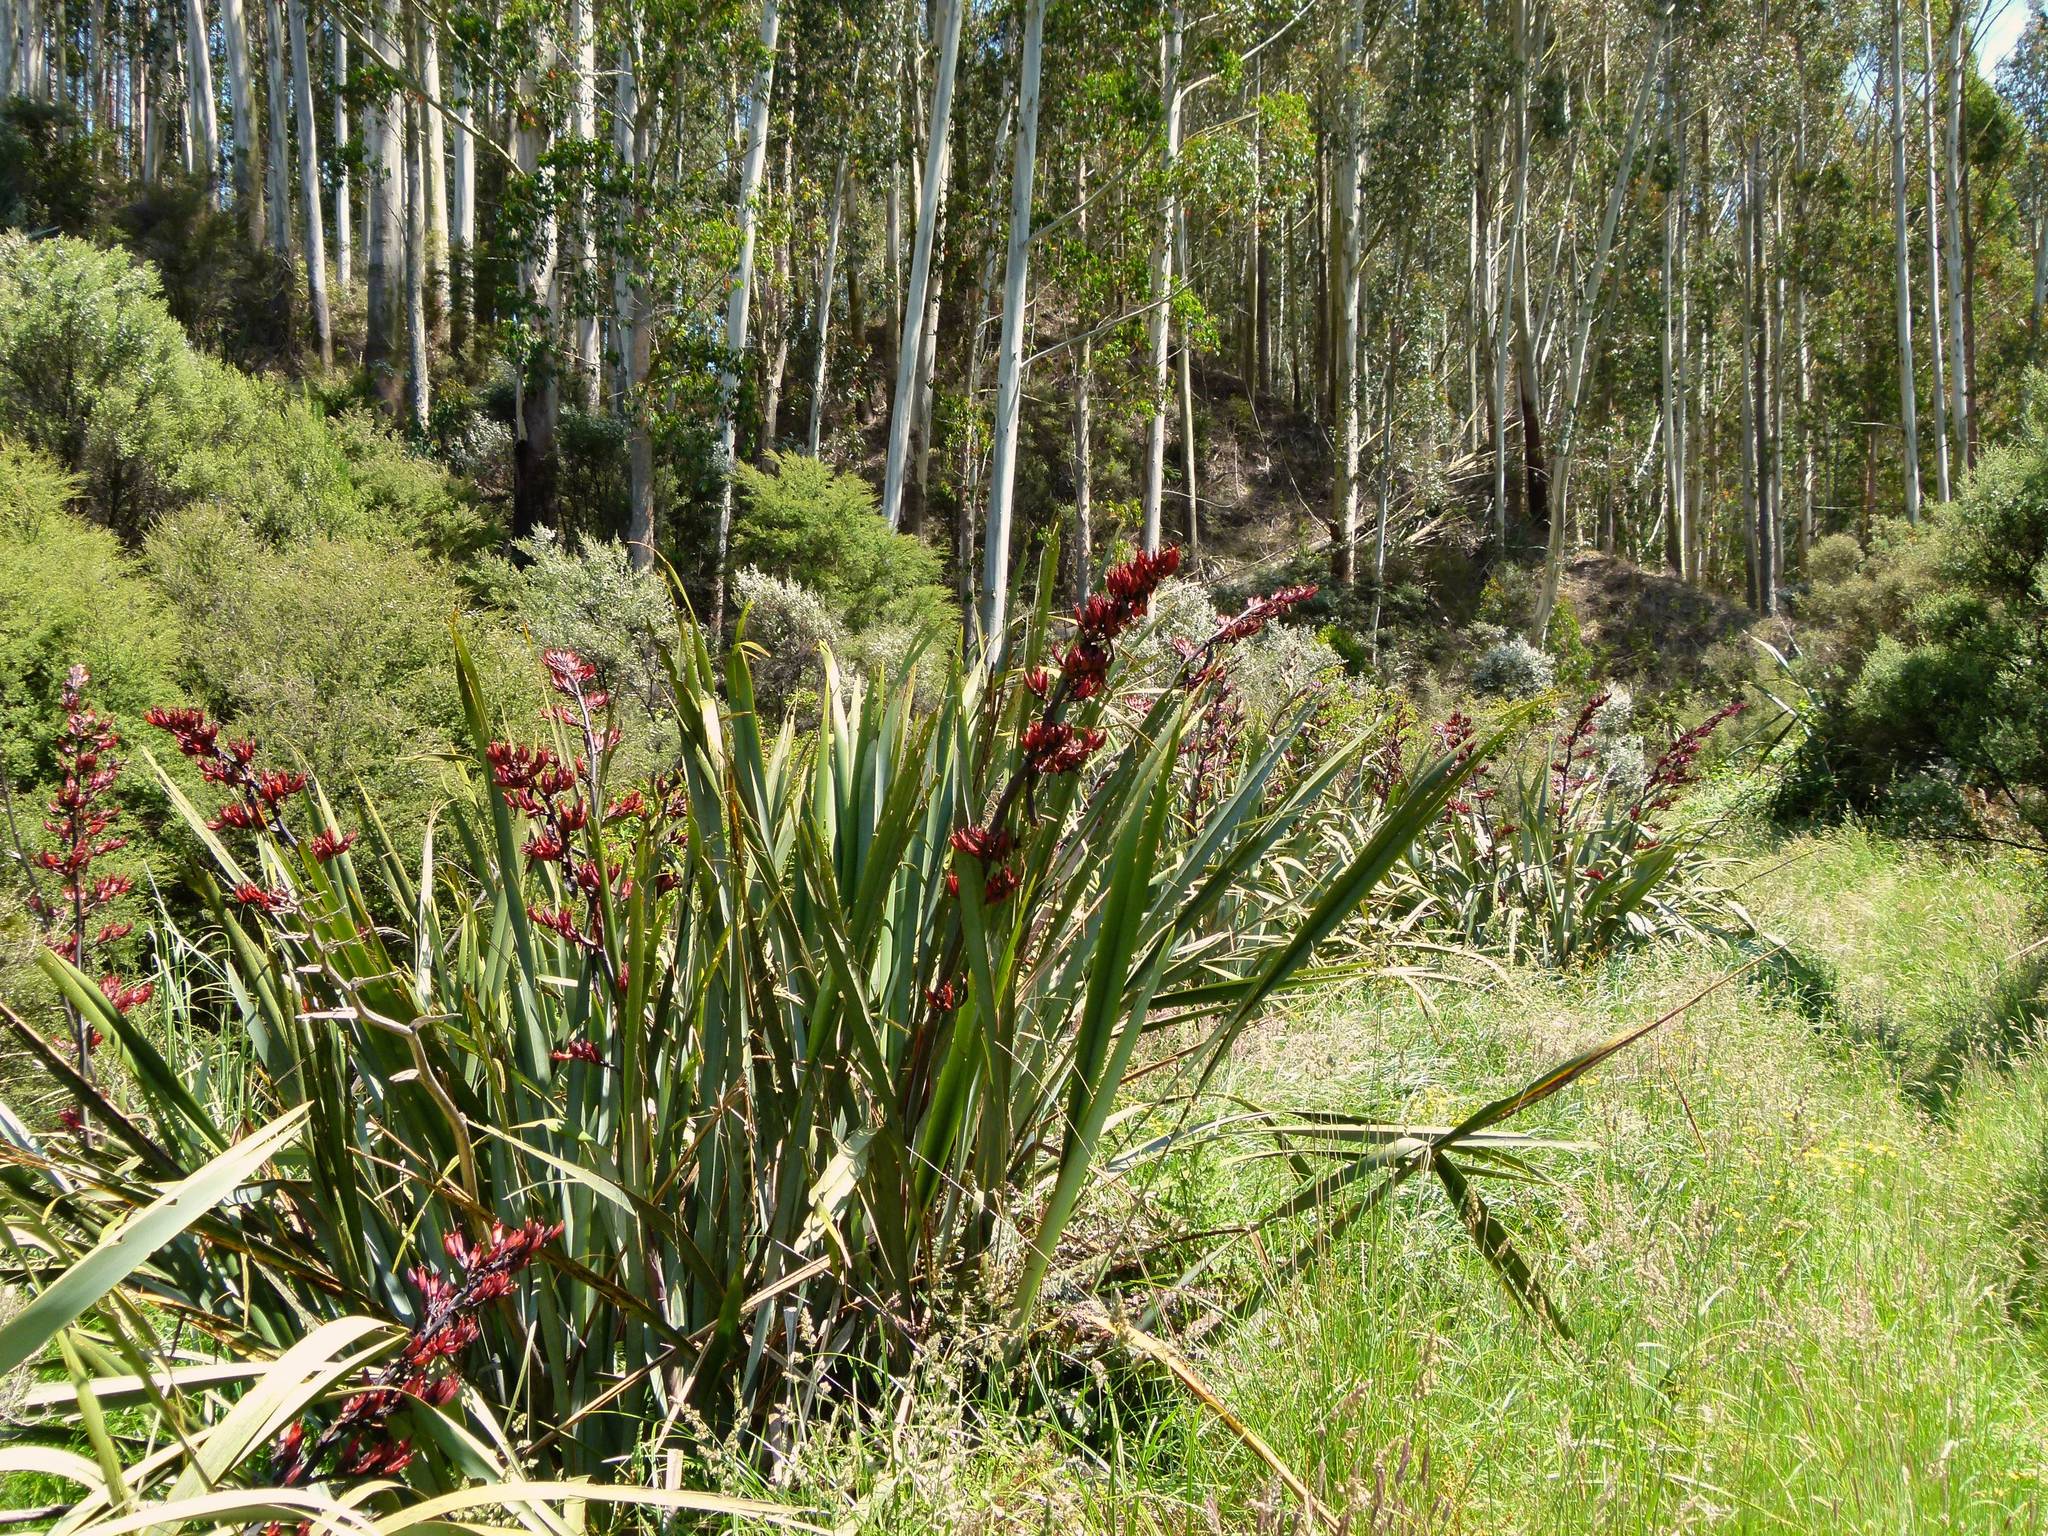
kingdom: Plantae
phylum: Tracheophyta
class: Liliopsida
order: Asparagales
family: Asphodelaceae
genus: Phormium
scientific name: Phormium tenax
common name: New zealand flax
